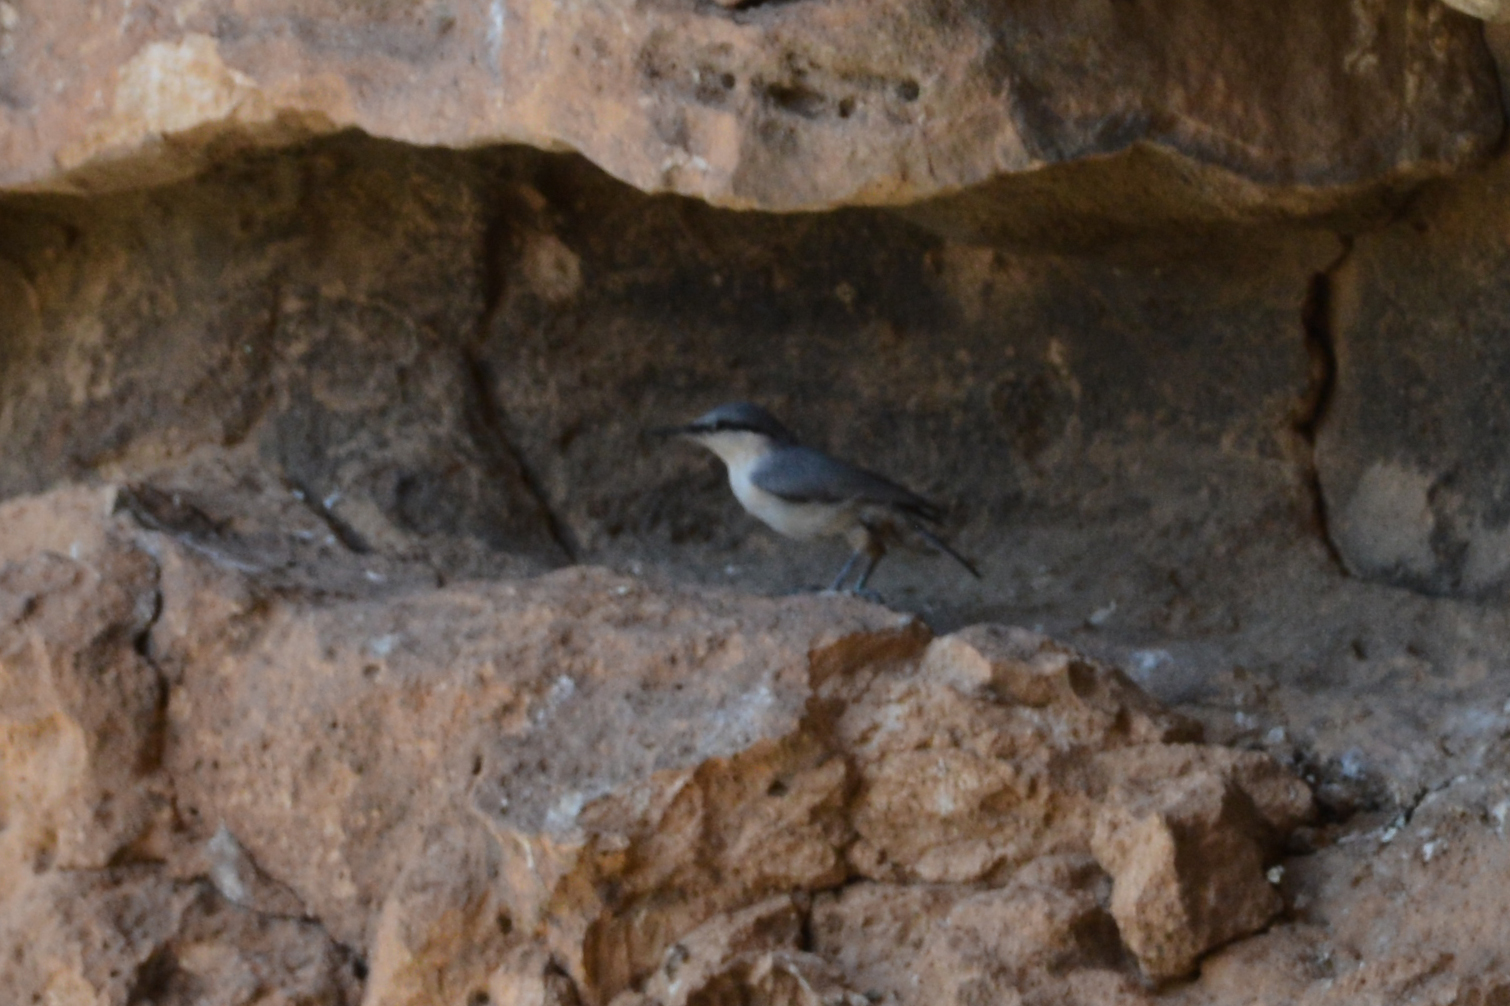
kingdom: Animalia
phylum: Chordata
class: Aves
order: Passeriformes
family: Sittidae
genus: Sitta
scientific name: Sitta neumayer
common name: Western rock nuthatch
